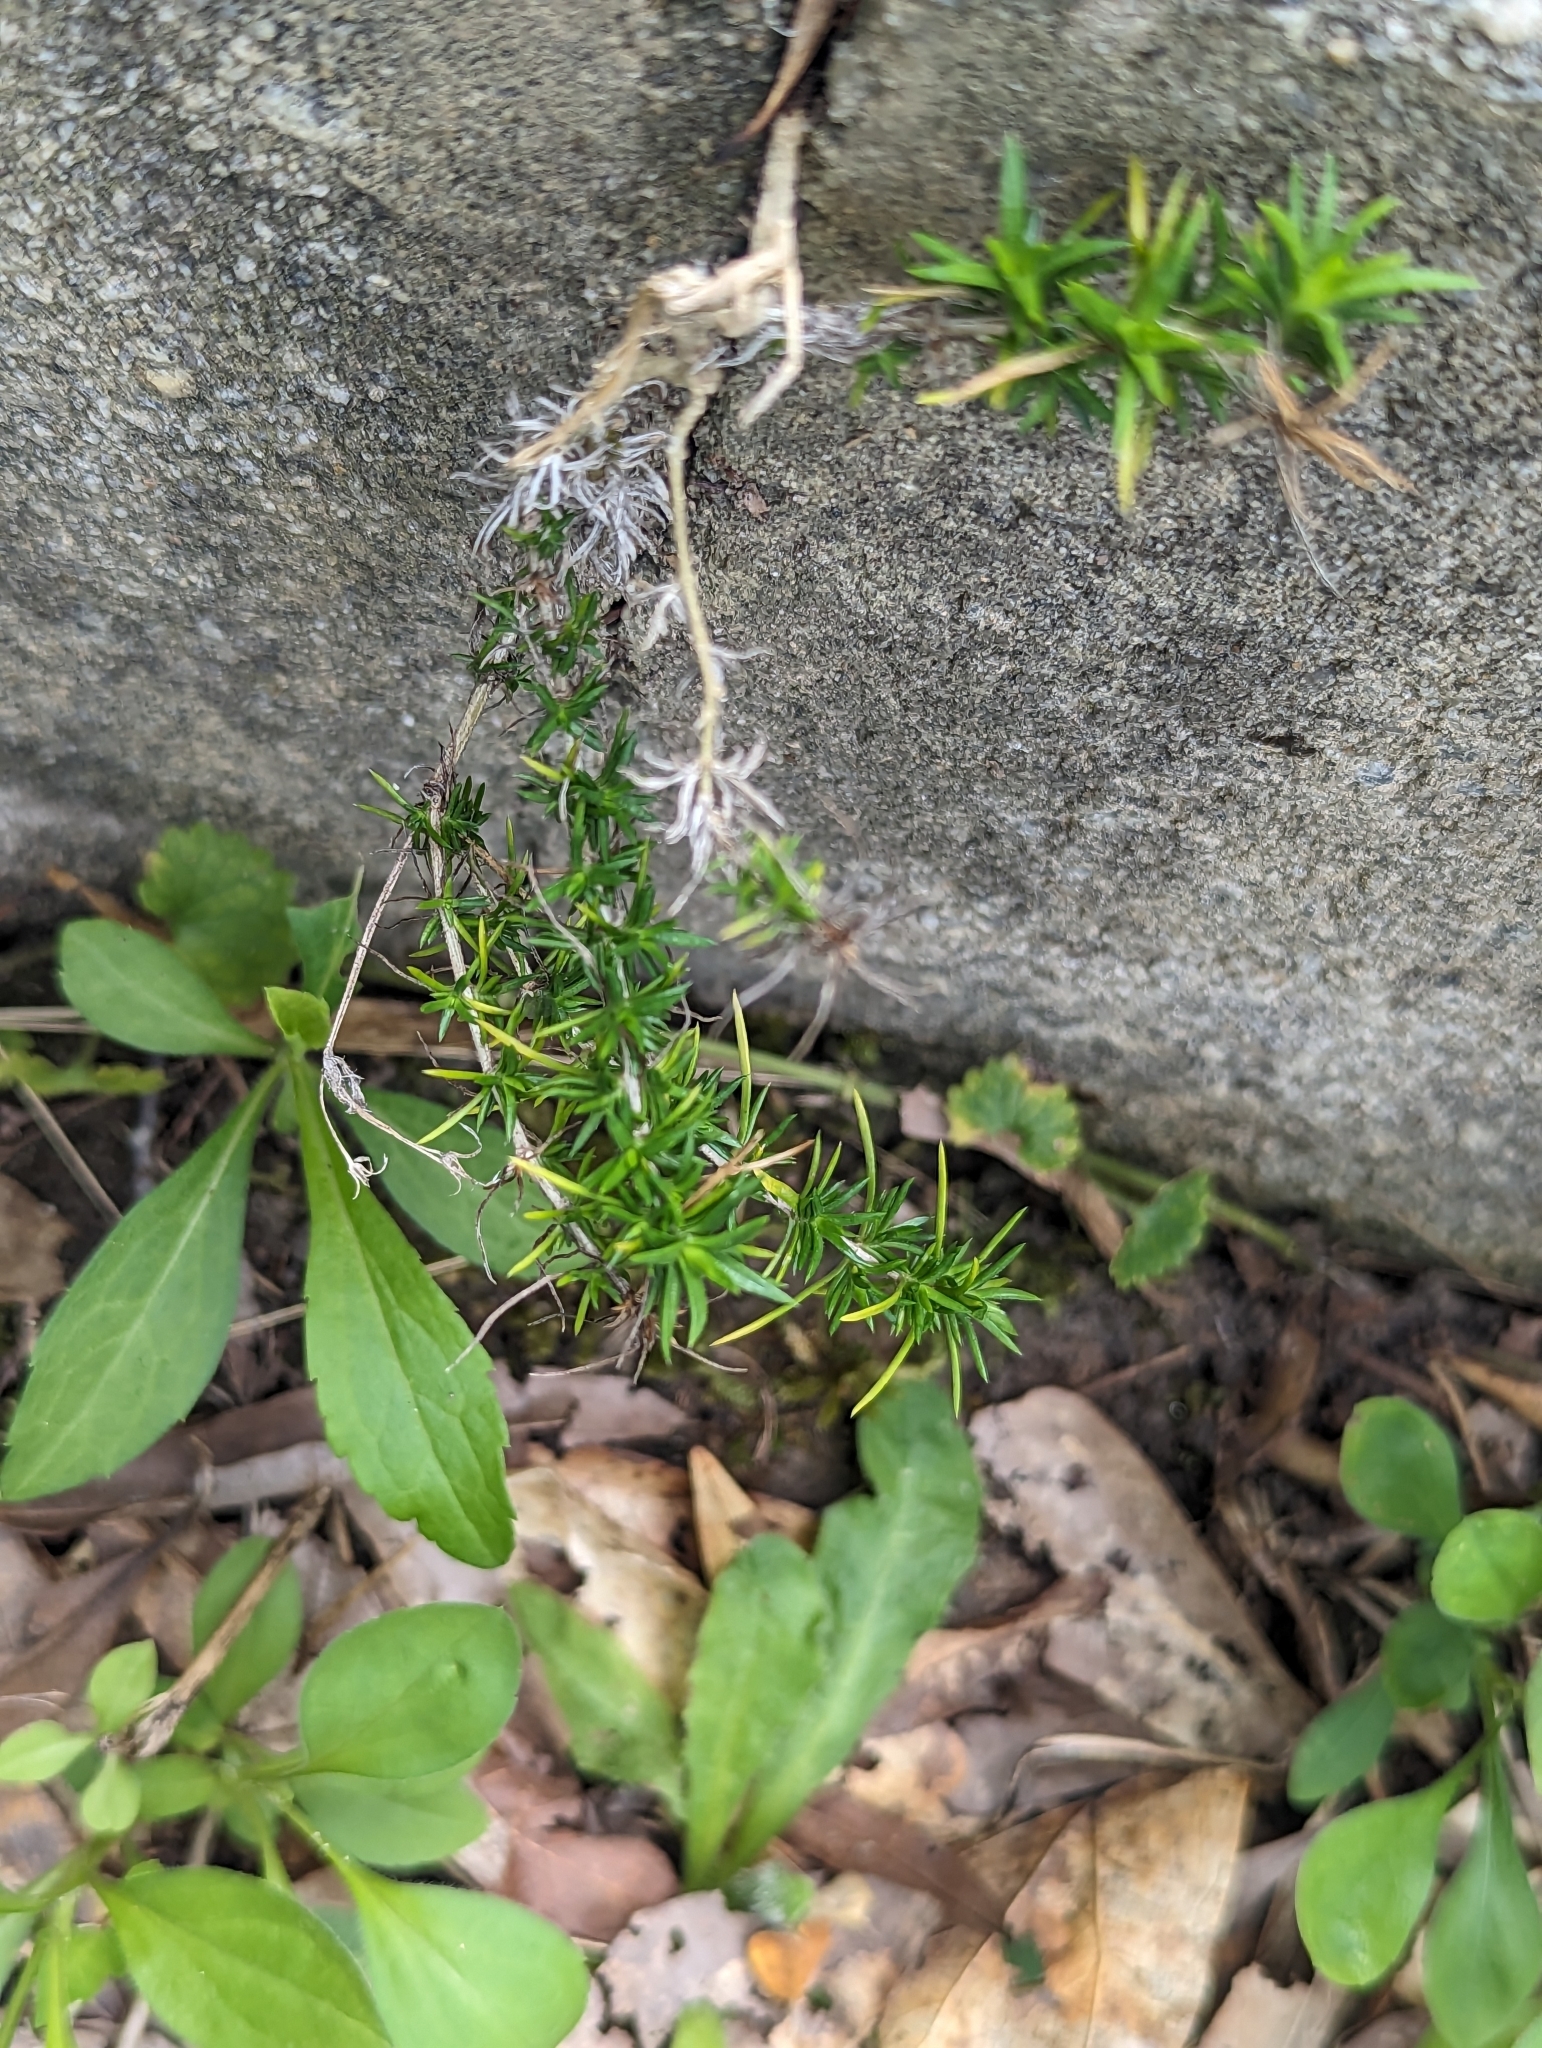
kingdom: Plantae
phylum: Tracheophyta
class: Magnoliopsida
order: Ericales
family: Polemoniaceae
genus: Phlox
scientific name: Phlox subulata
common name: Moss phlox
